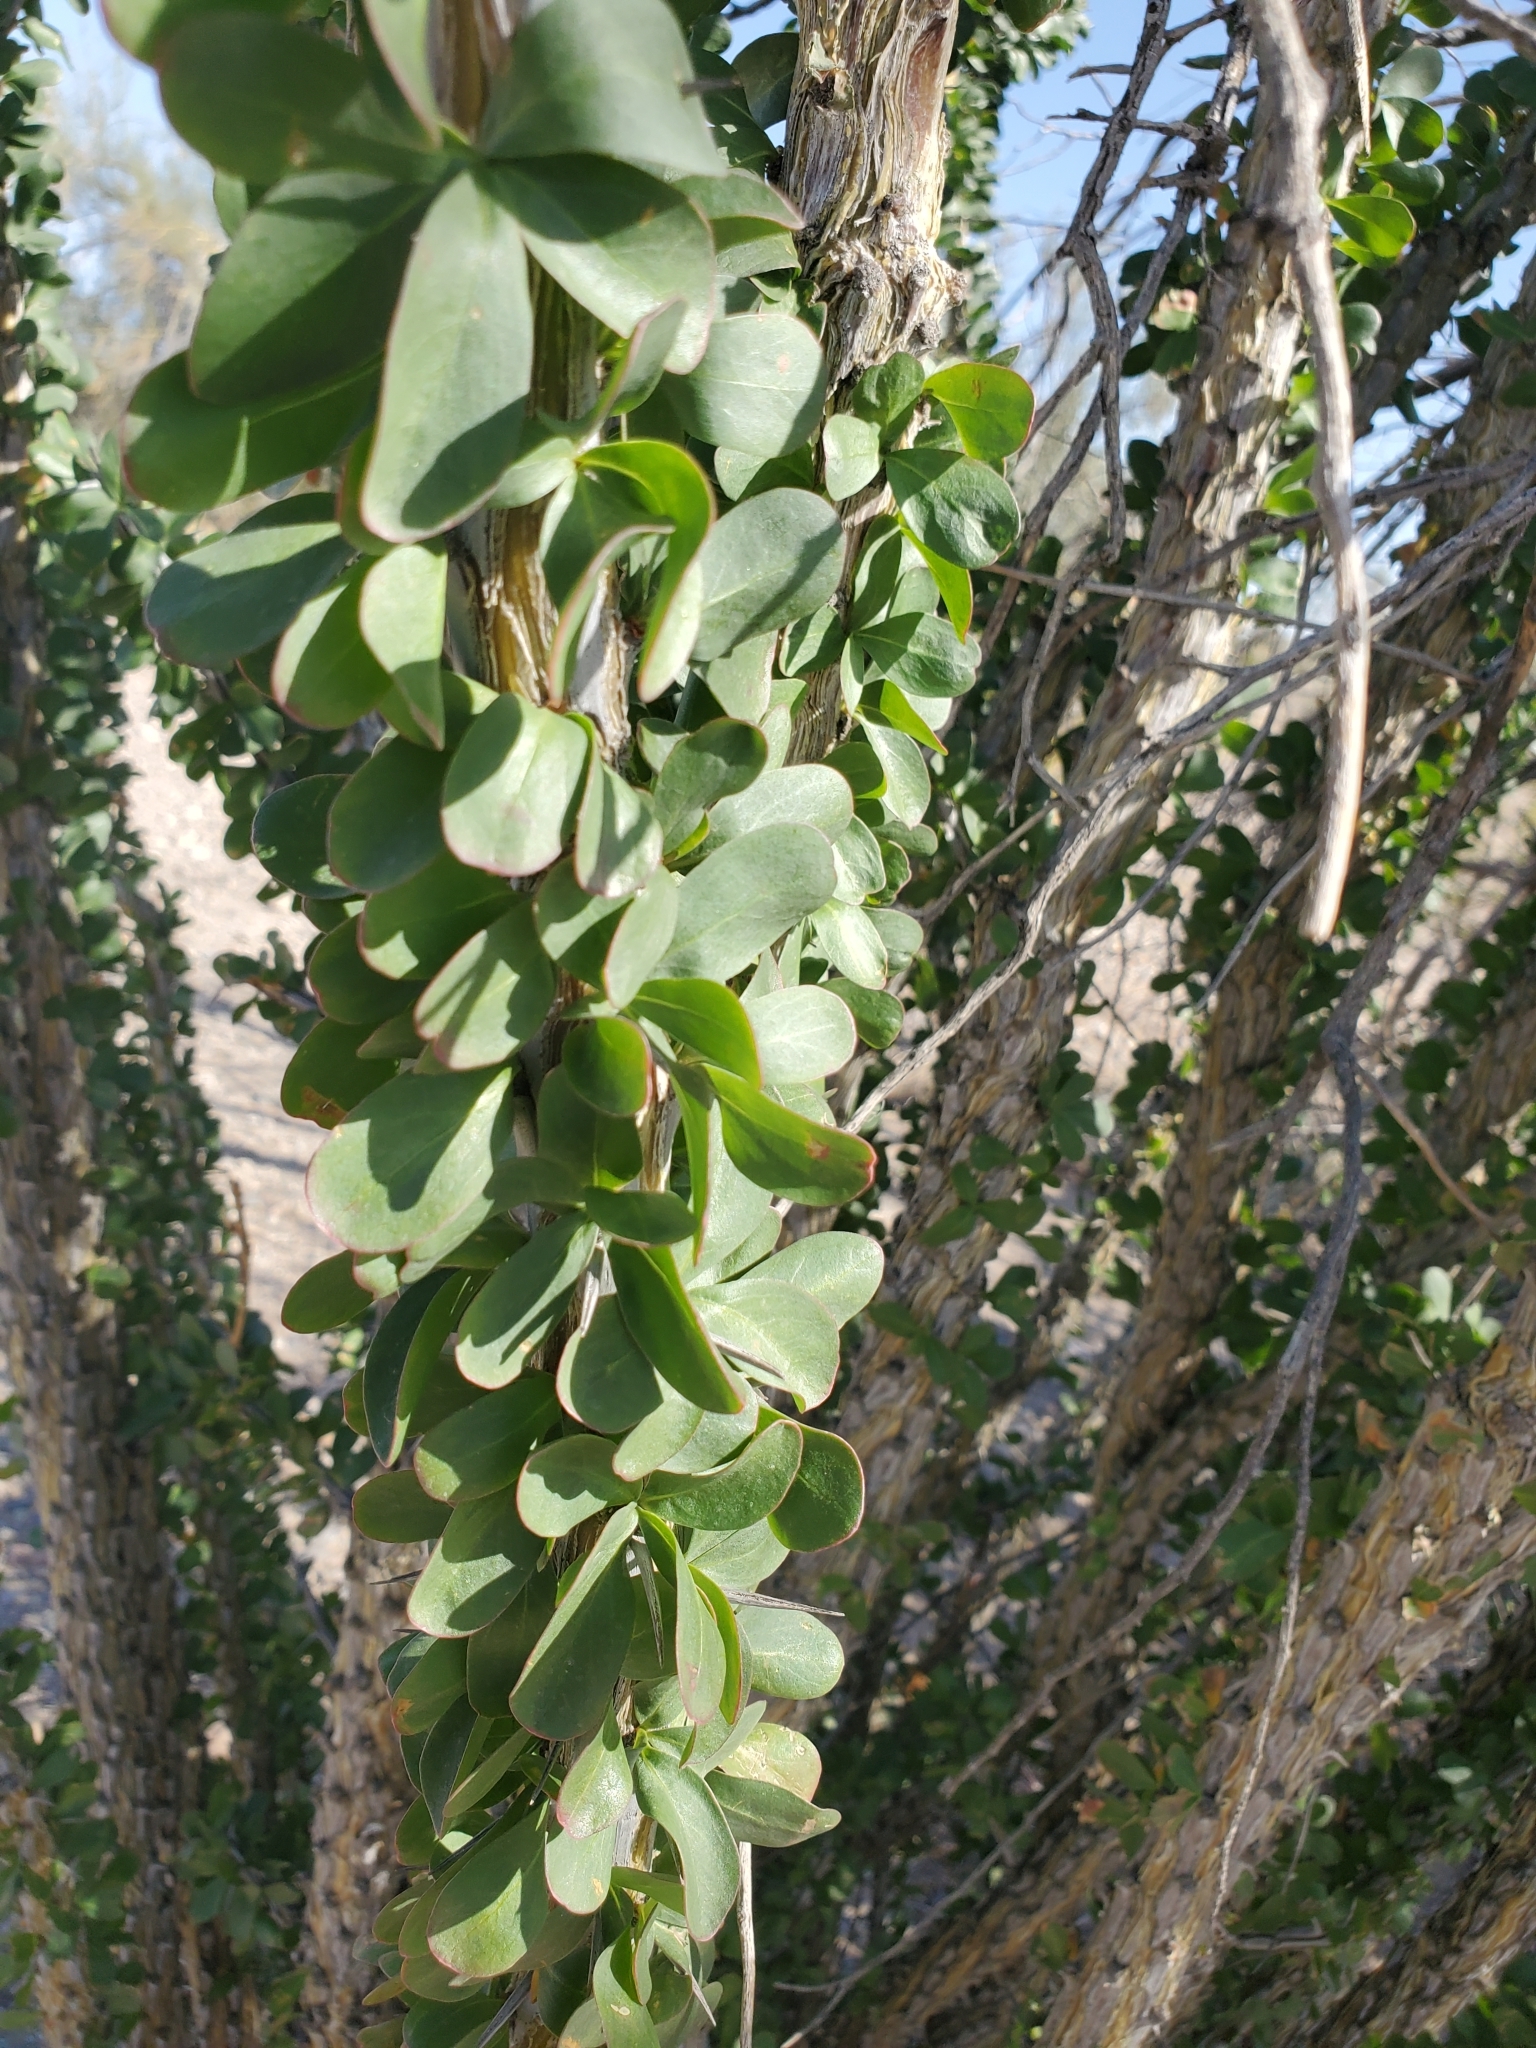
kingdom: Plantae
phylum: Tracheophyta
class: Magnoliopsida
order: Ericales
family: Fouquieriaceae
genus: Fouquieria
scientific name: Fouquieria splendens
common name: Vine-cactus
